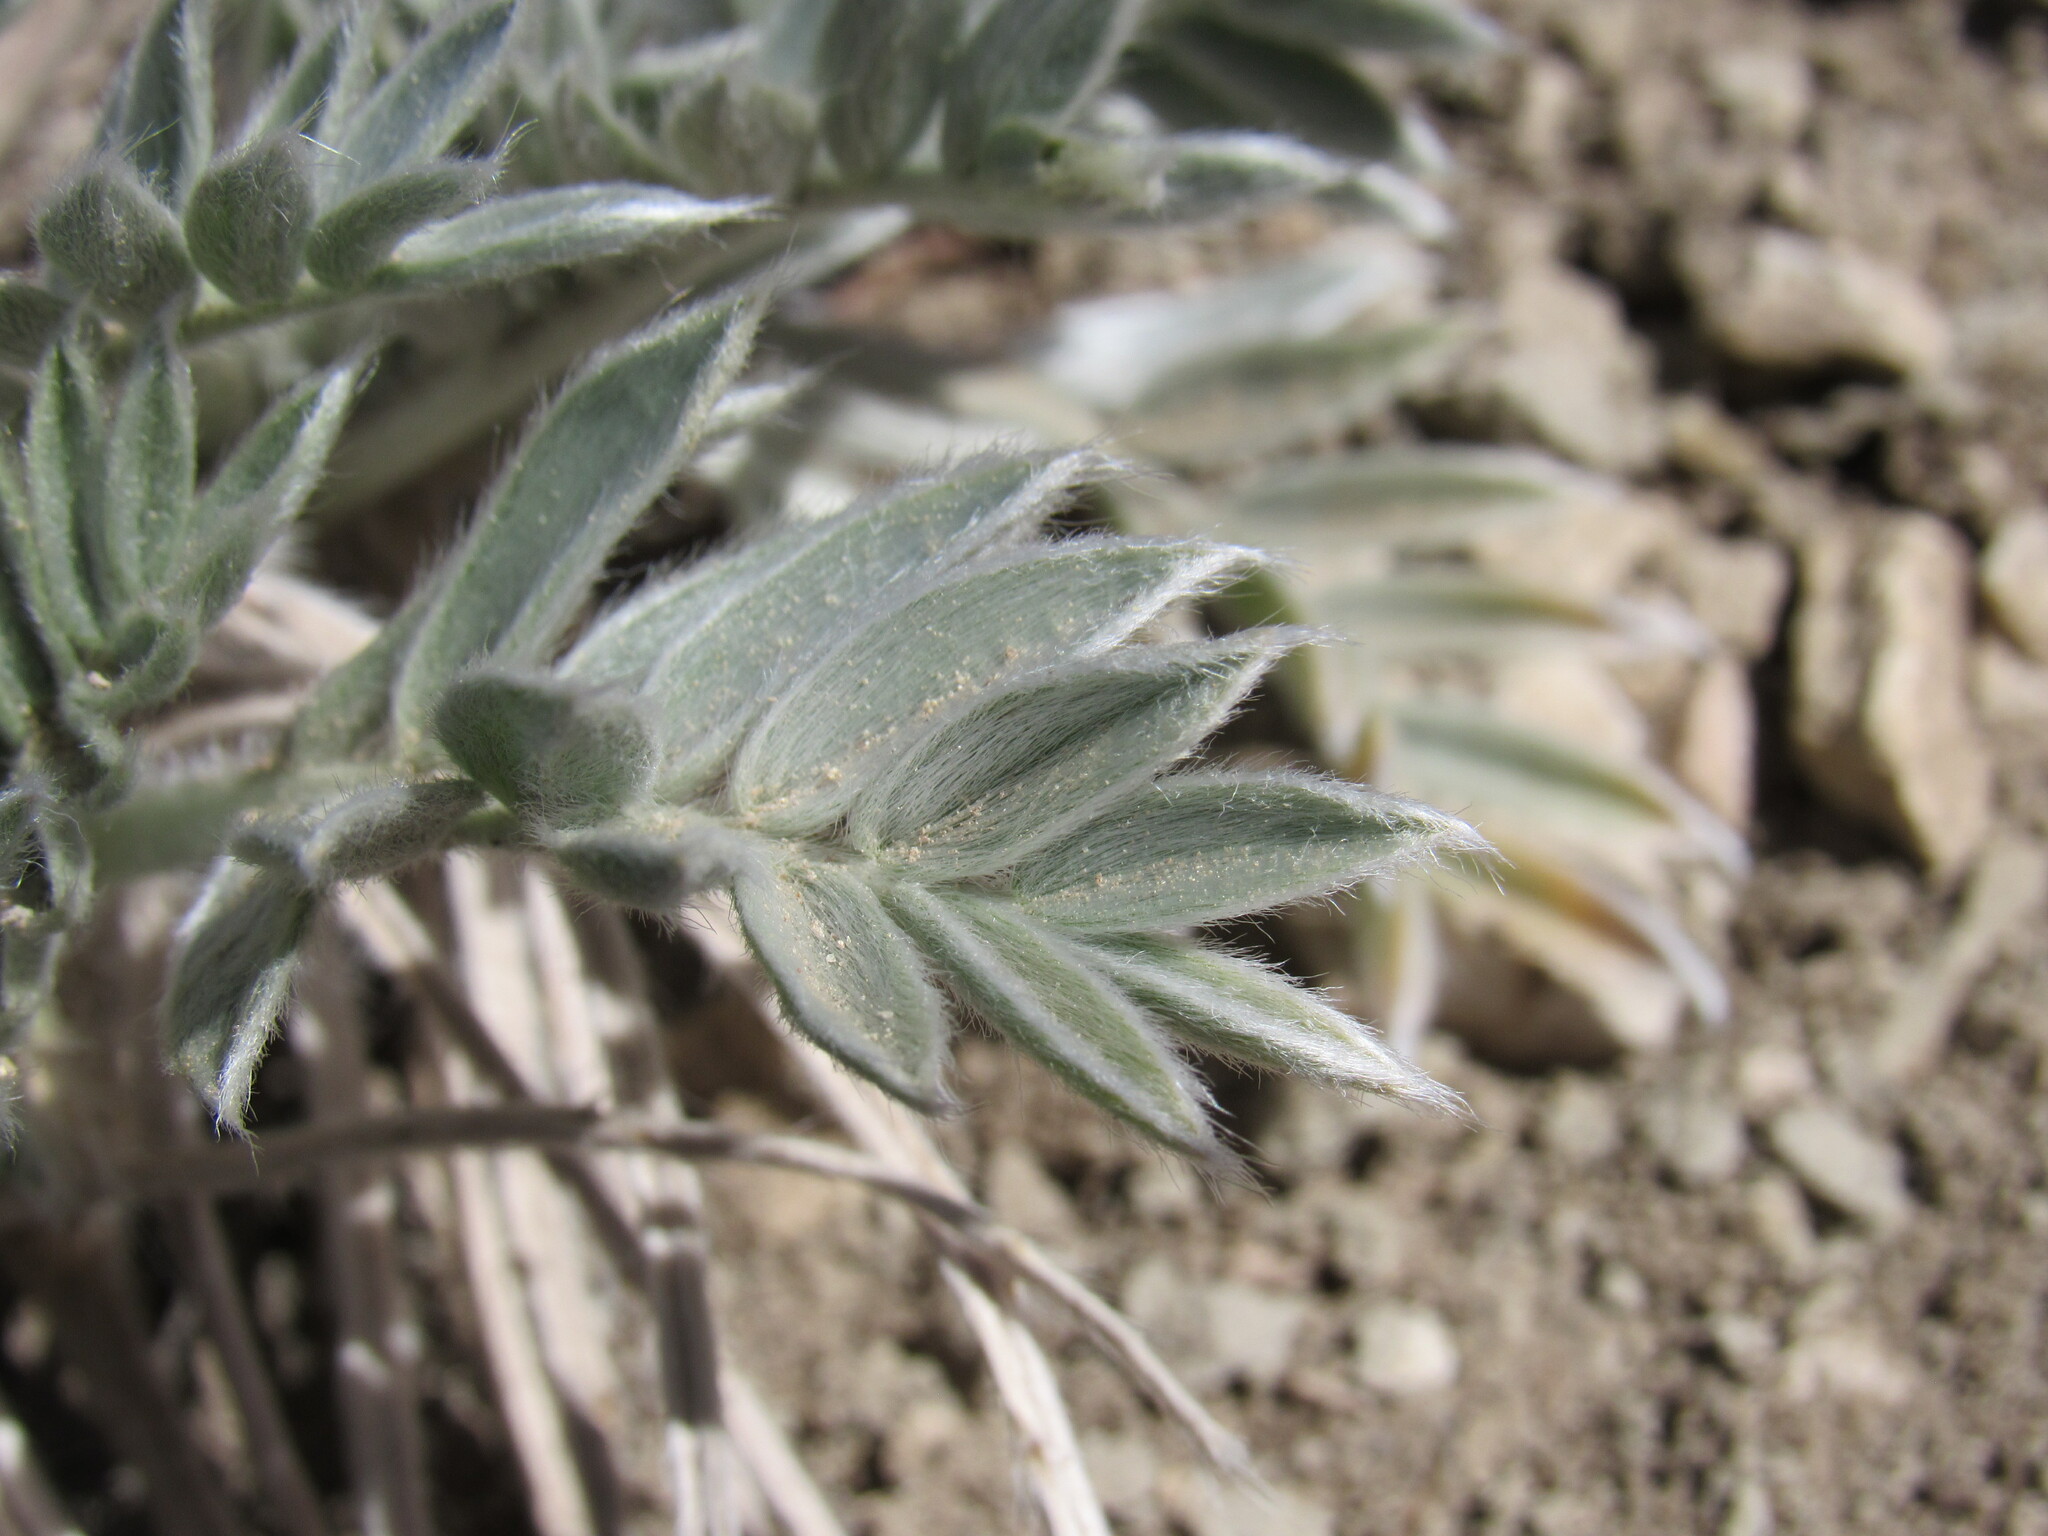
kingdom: Plantae
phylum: Tracheophyta
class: Magnoliopsida
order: Fabales
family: Fabaceae
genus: Oxytropis
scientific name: Oxytropis sericea
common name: Silky locoweed
